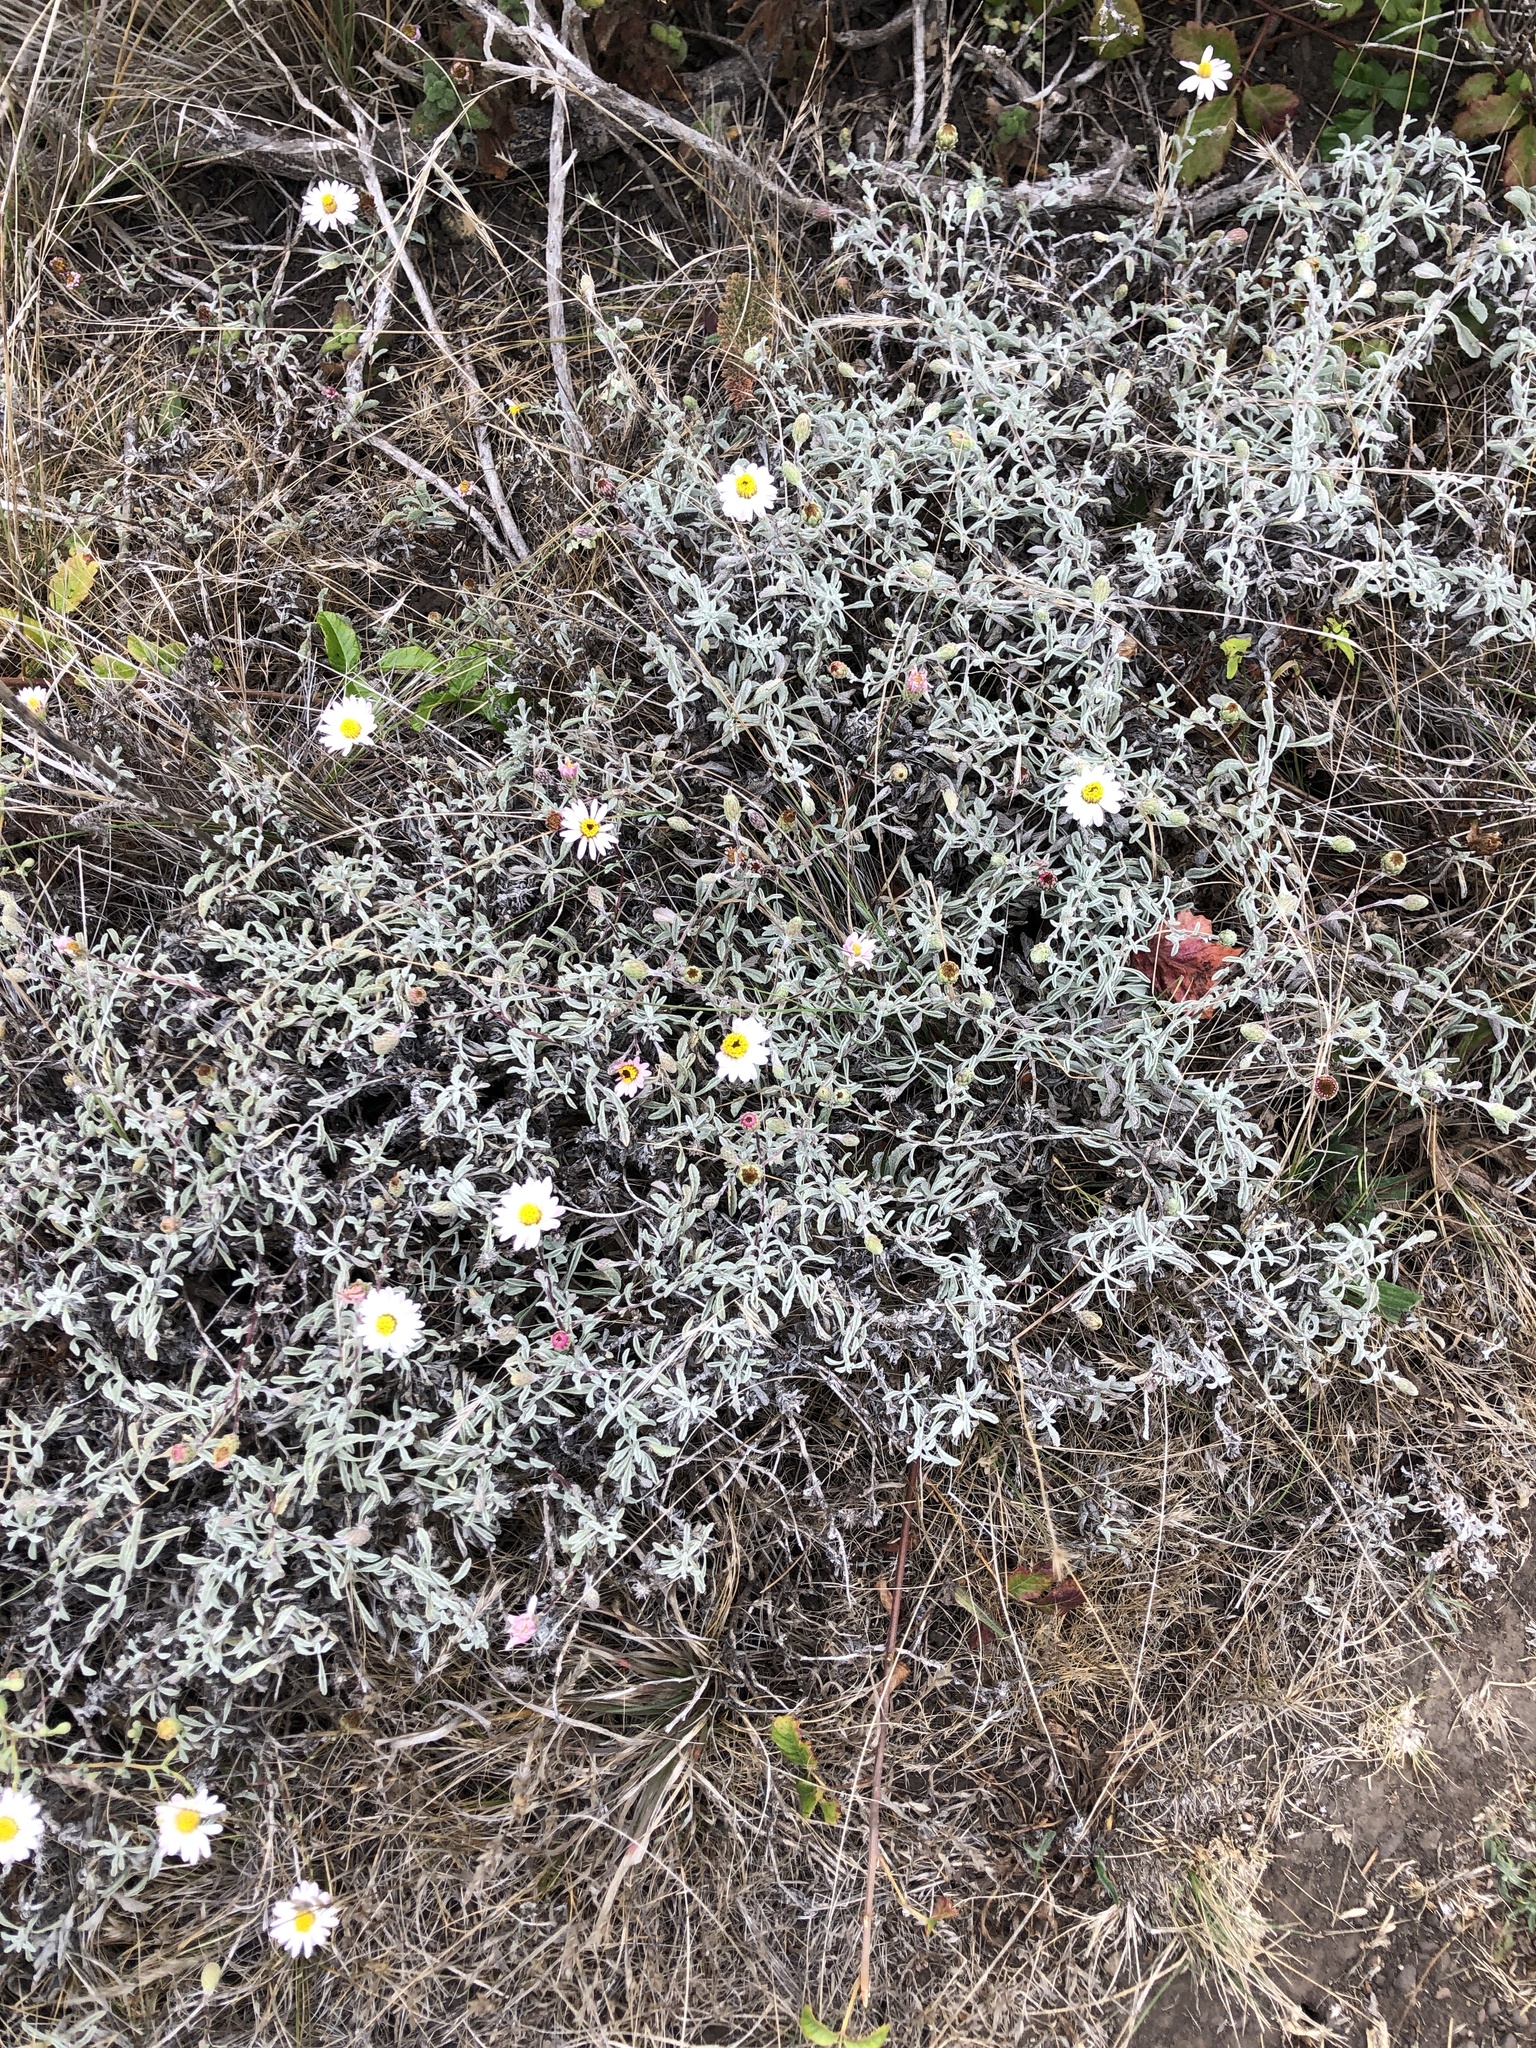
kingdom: Plantae
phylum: Tracheophyta
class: Magnoliopsida
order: Asterales
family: Asteraceae
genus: Corethrogyne
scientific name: Corethrogyne filaginifolia
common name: Sand-aster
